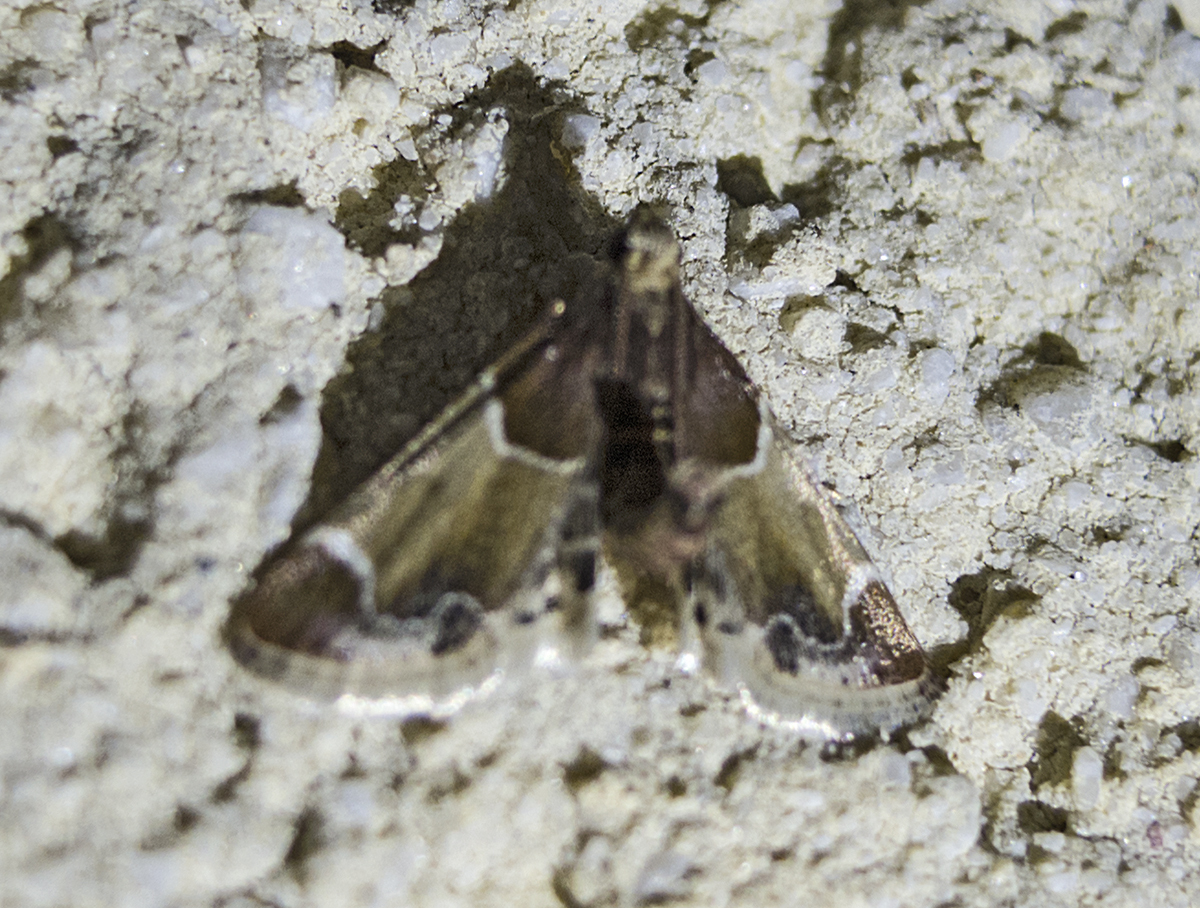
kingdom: Animalia
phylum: Arthropoda
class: Insecta
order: Lepidoptera
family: Pyralidae
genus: Pyralis
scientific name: Pyralis farinalis
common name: Meal moth
